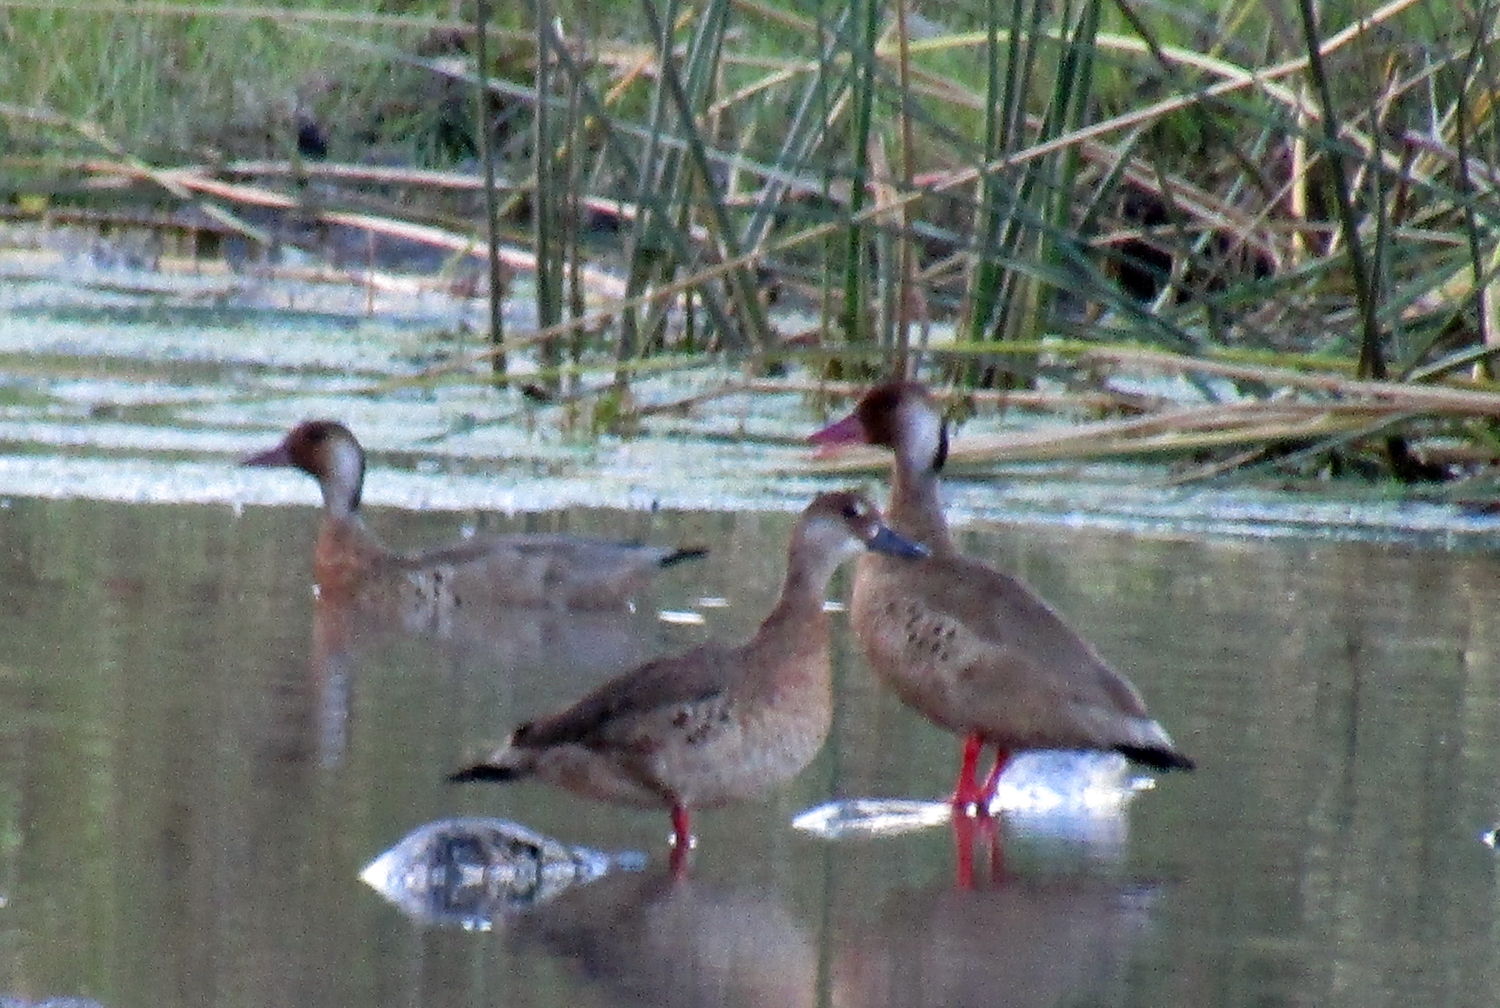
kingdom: Animalia
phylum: Chordata
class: Aves
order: Anseriformes
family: Anatidae
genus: Amazonetta
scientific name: Amazonetta brasiliensis
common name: Brazilian teal
